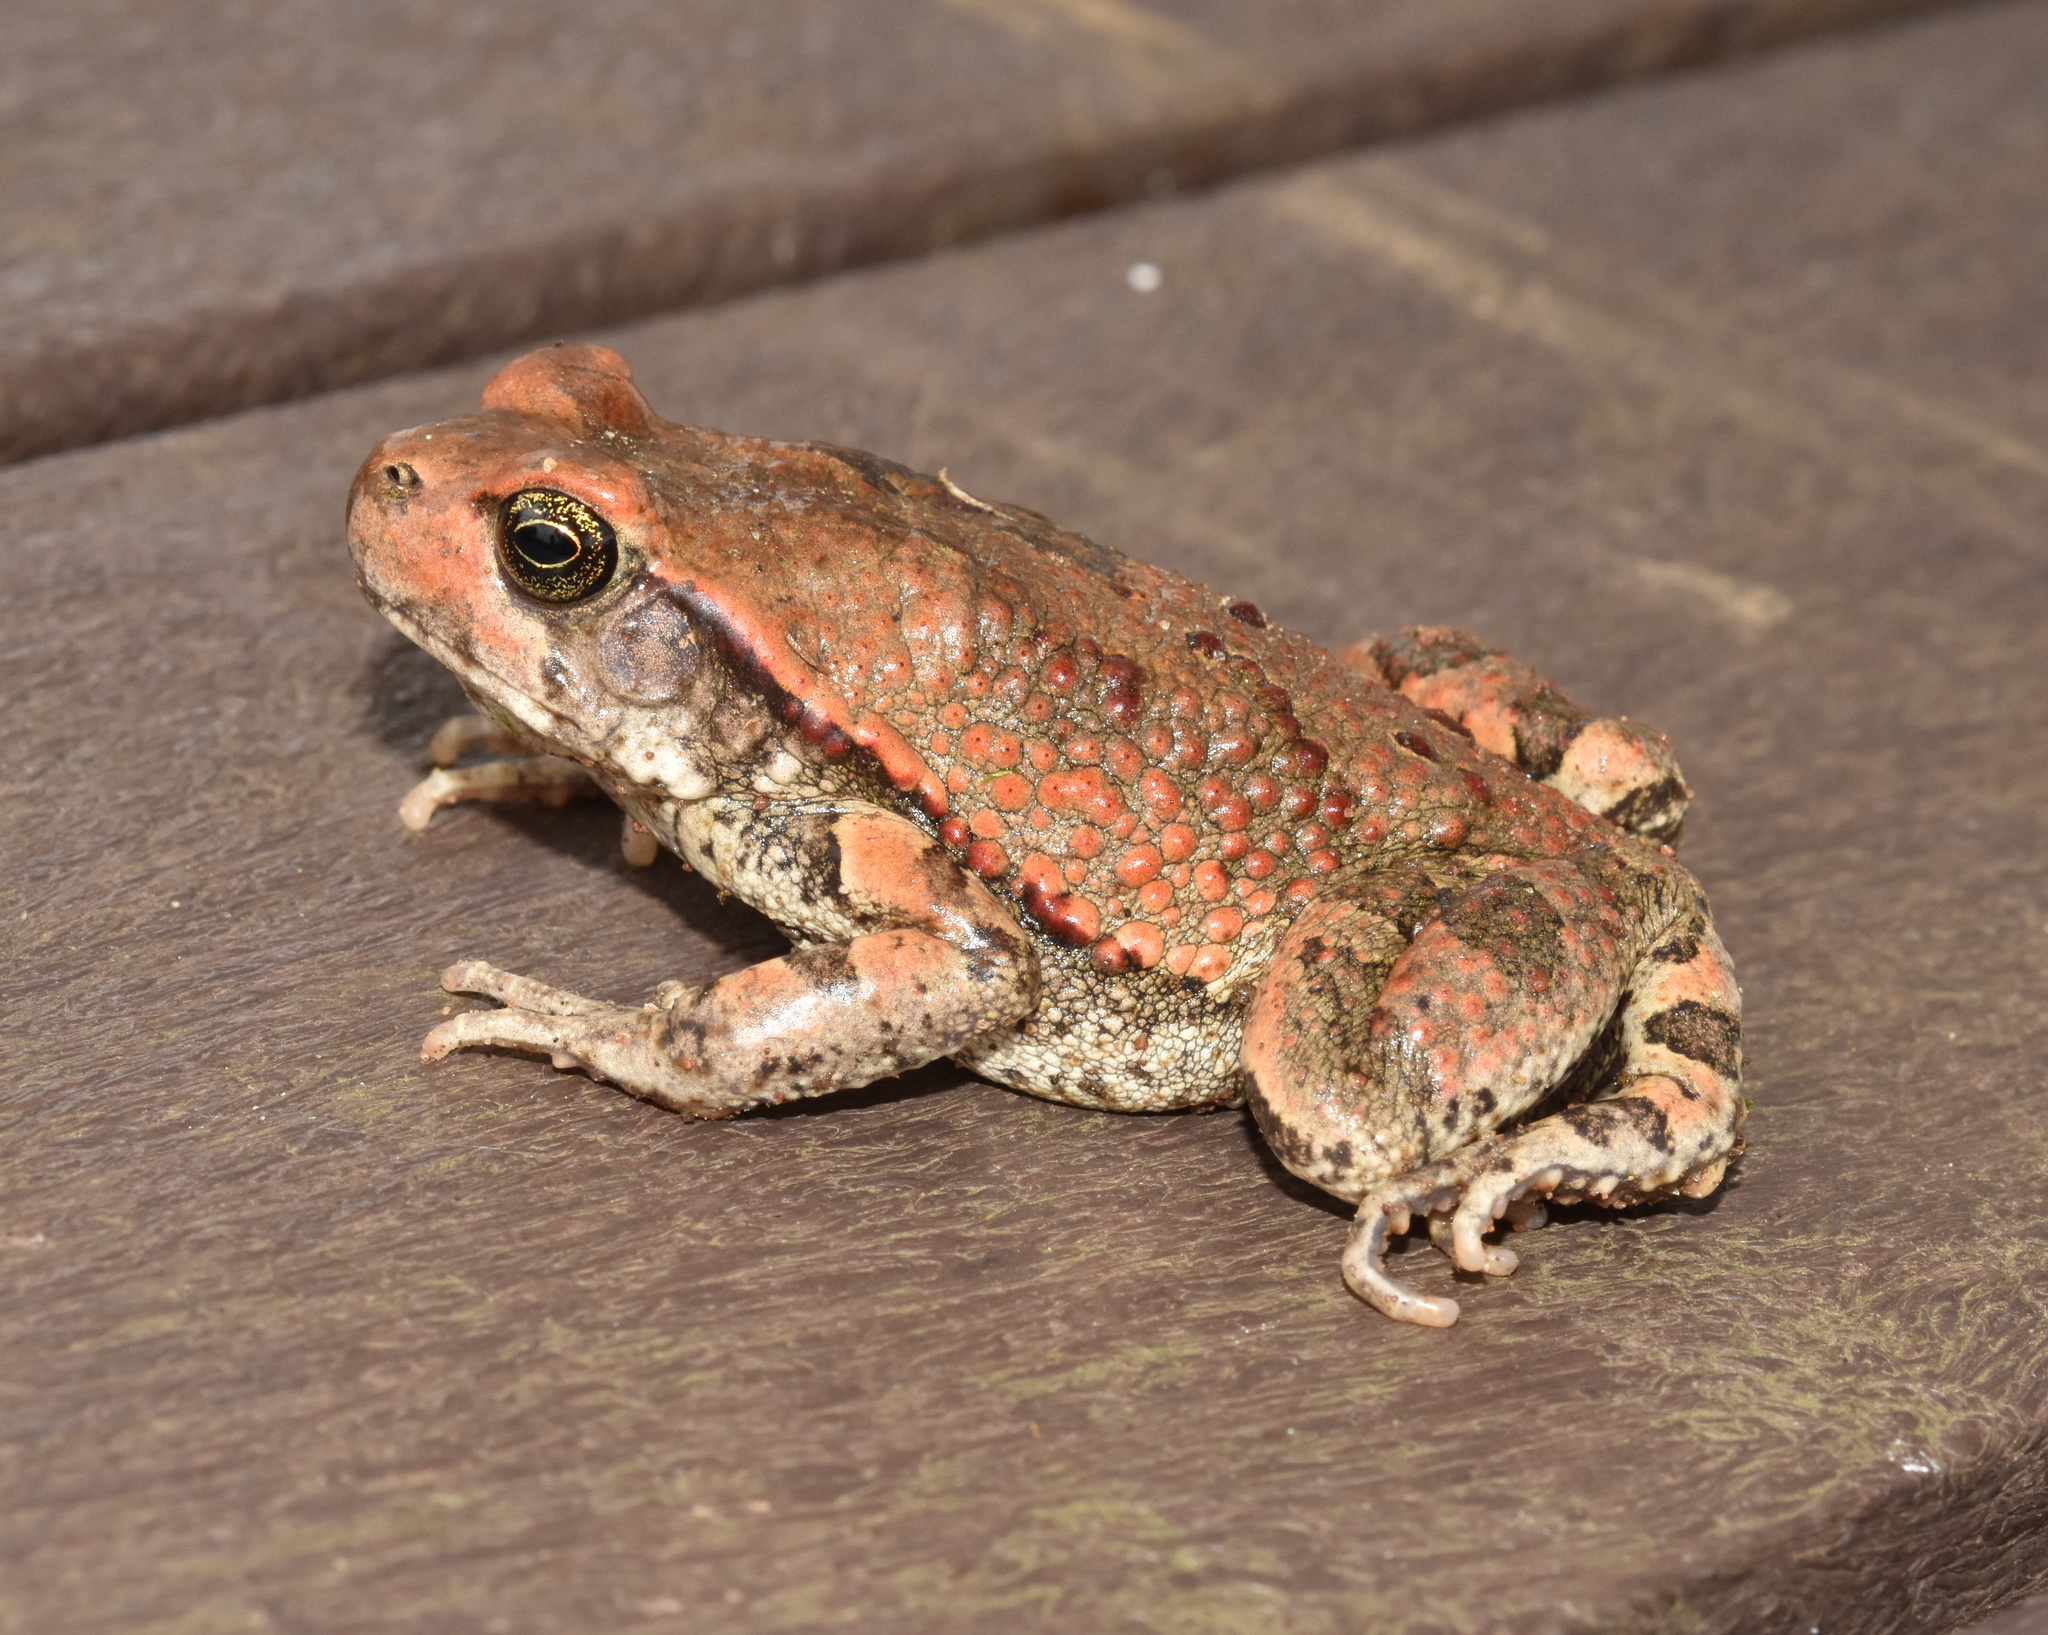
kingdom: Animalia
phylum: Chordata
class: Amphibia
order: Anura
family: Bufonidae
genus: Schismaderma
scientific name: Schismaderma carens
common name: African split-skin toad
